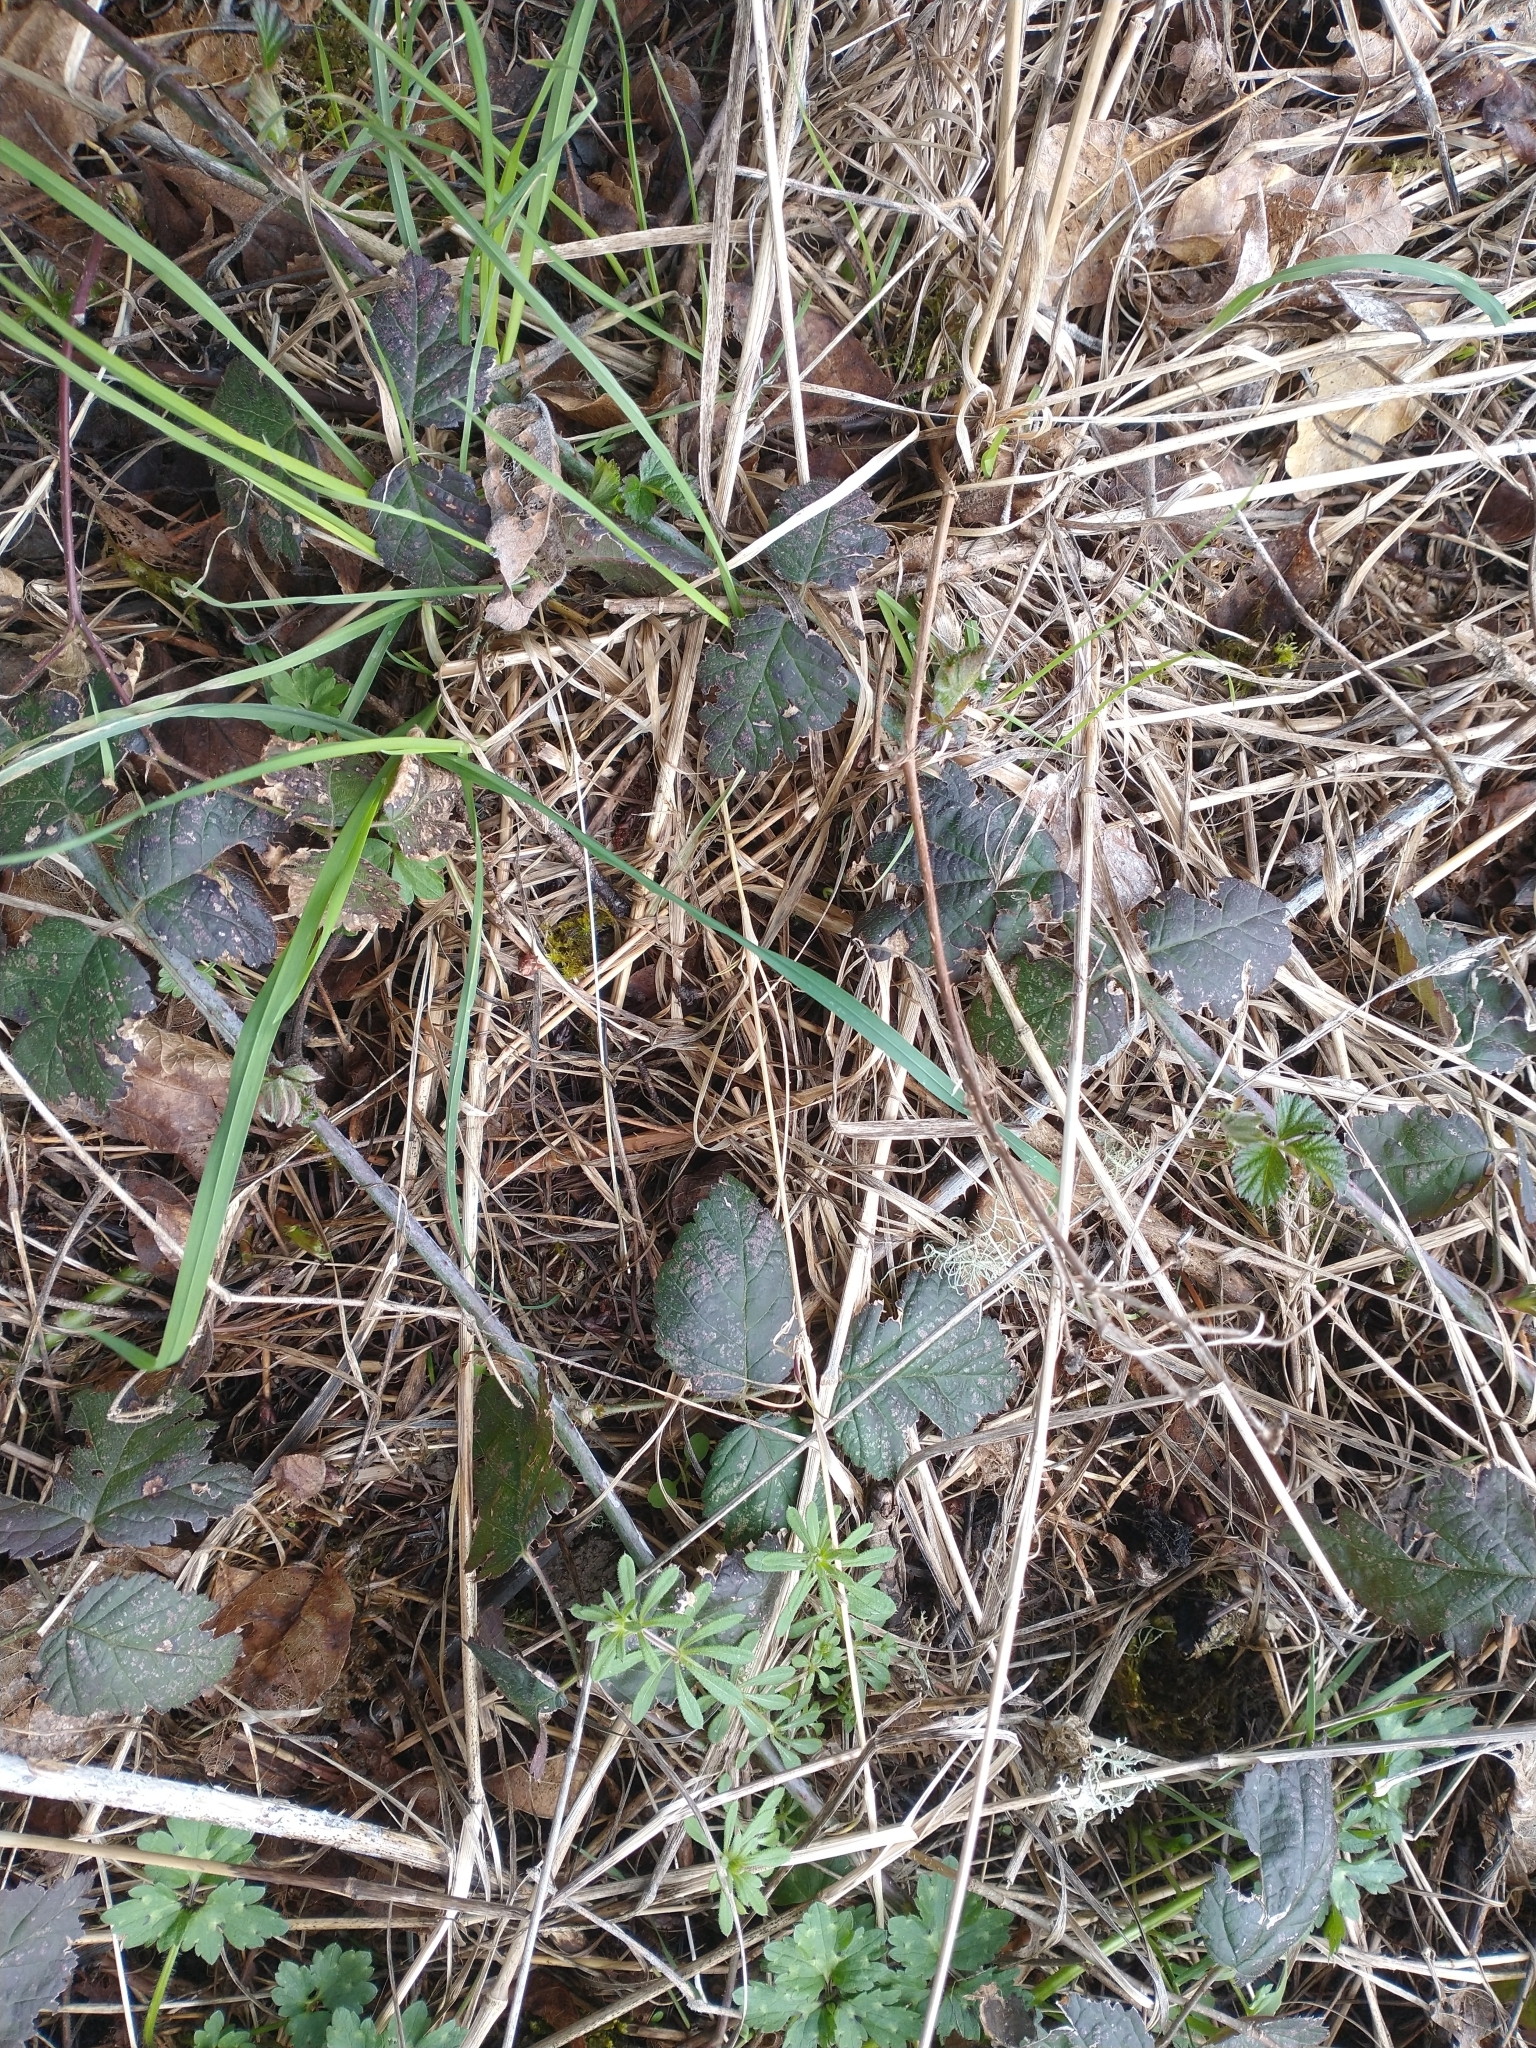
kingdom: Plantae
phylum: Tracheophyta
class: Magnoliopsida
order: Rosales
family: Rosaceae
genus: Rubus
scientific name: Rubus ursinus
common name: Pacific blackberry
